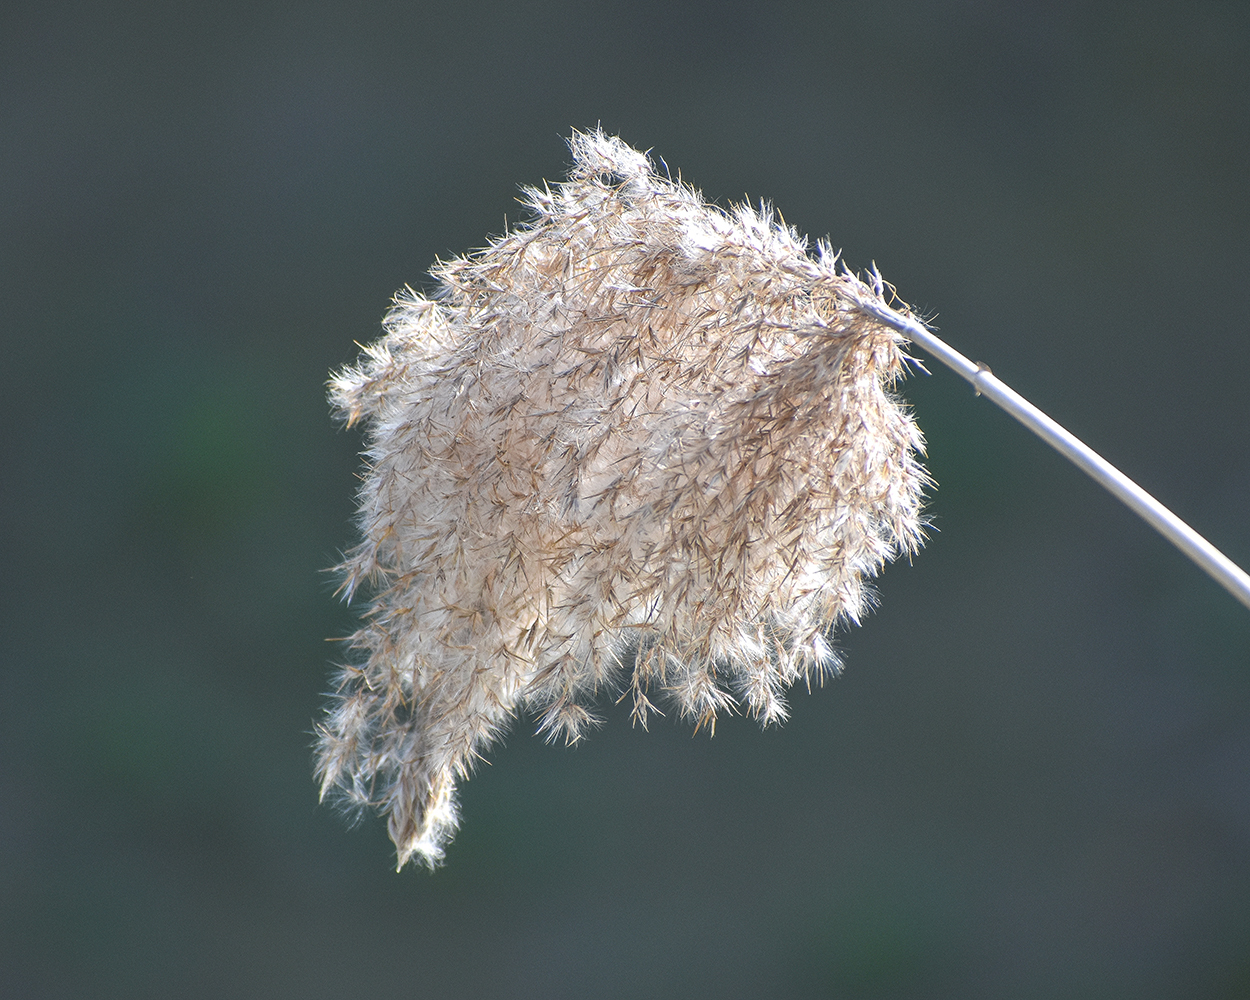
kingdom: Plantae
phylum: Tracheophyta
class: Liliopsida
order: Poales
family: Poaceae
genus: Phragmites
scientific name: Phragmites australis
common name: Common reed
